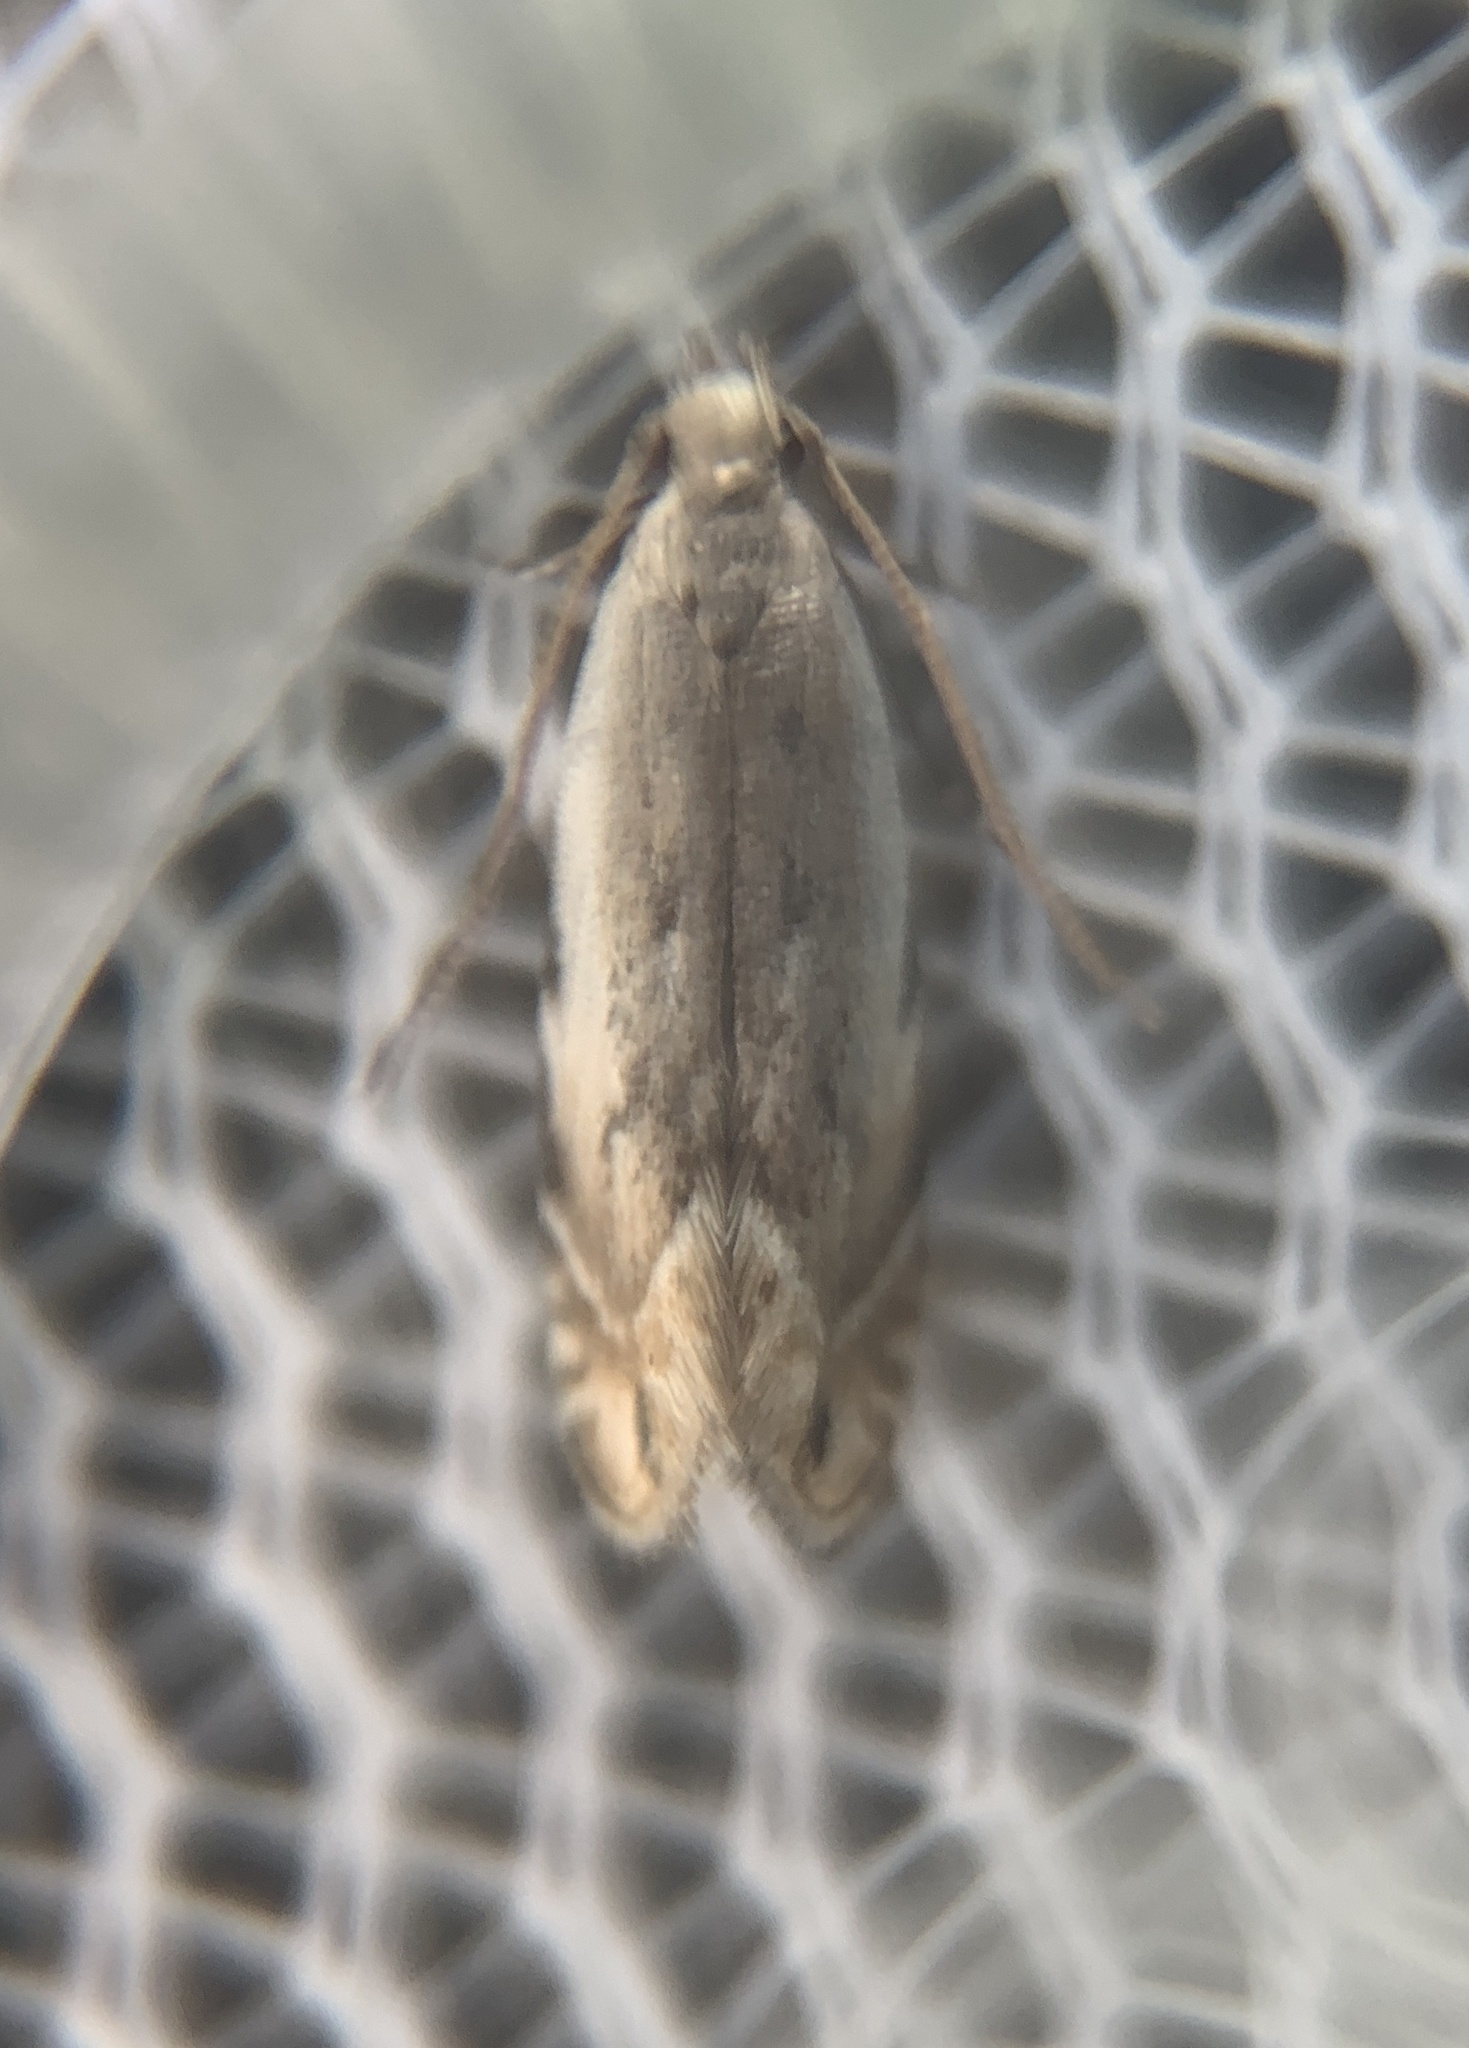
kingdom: Animalia
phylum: Arthropoda
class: Insecta
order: Lepidoptera
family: Gelechiidae
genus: Battaristis
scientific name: Battaristis nigratomella
